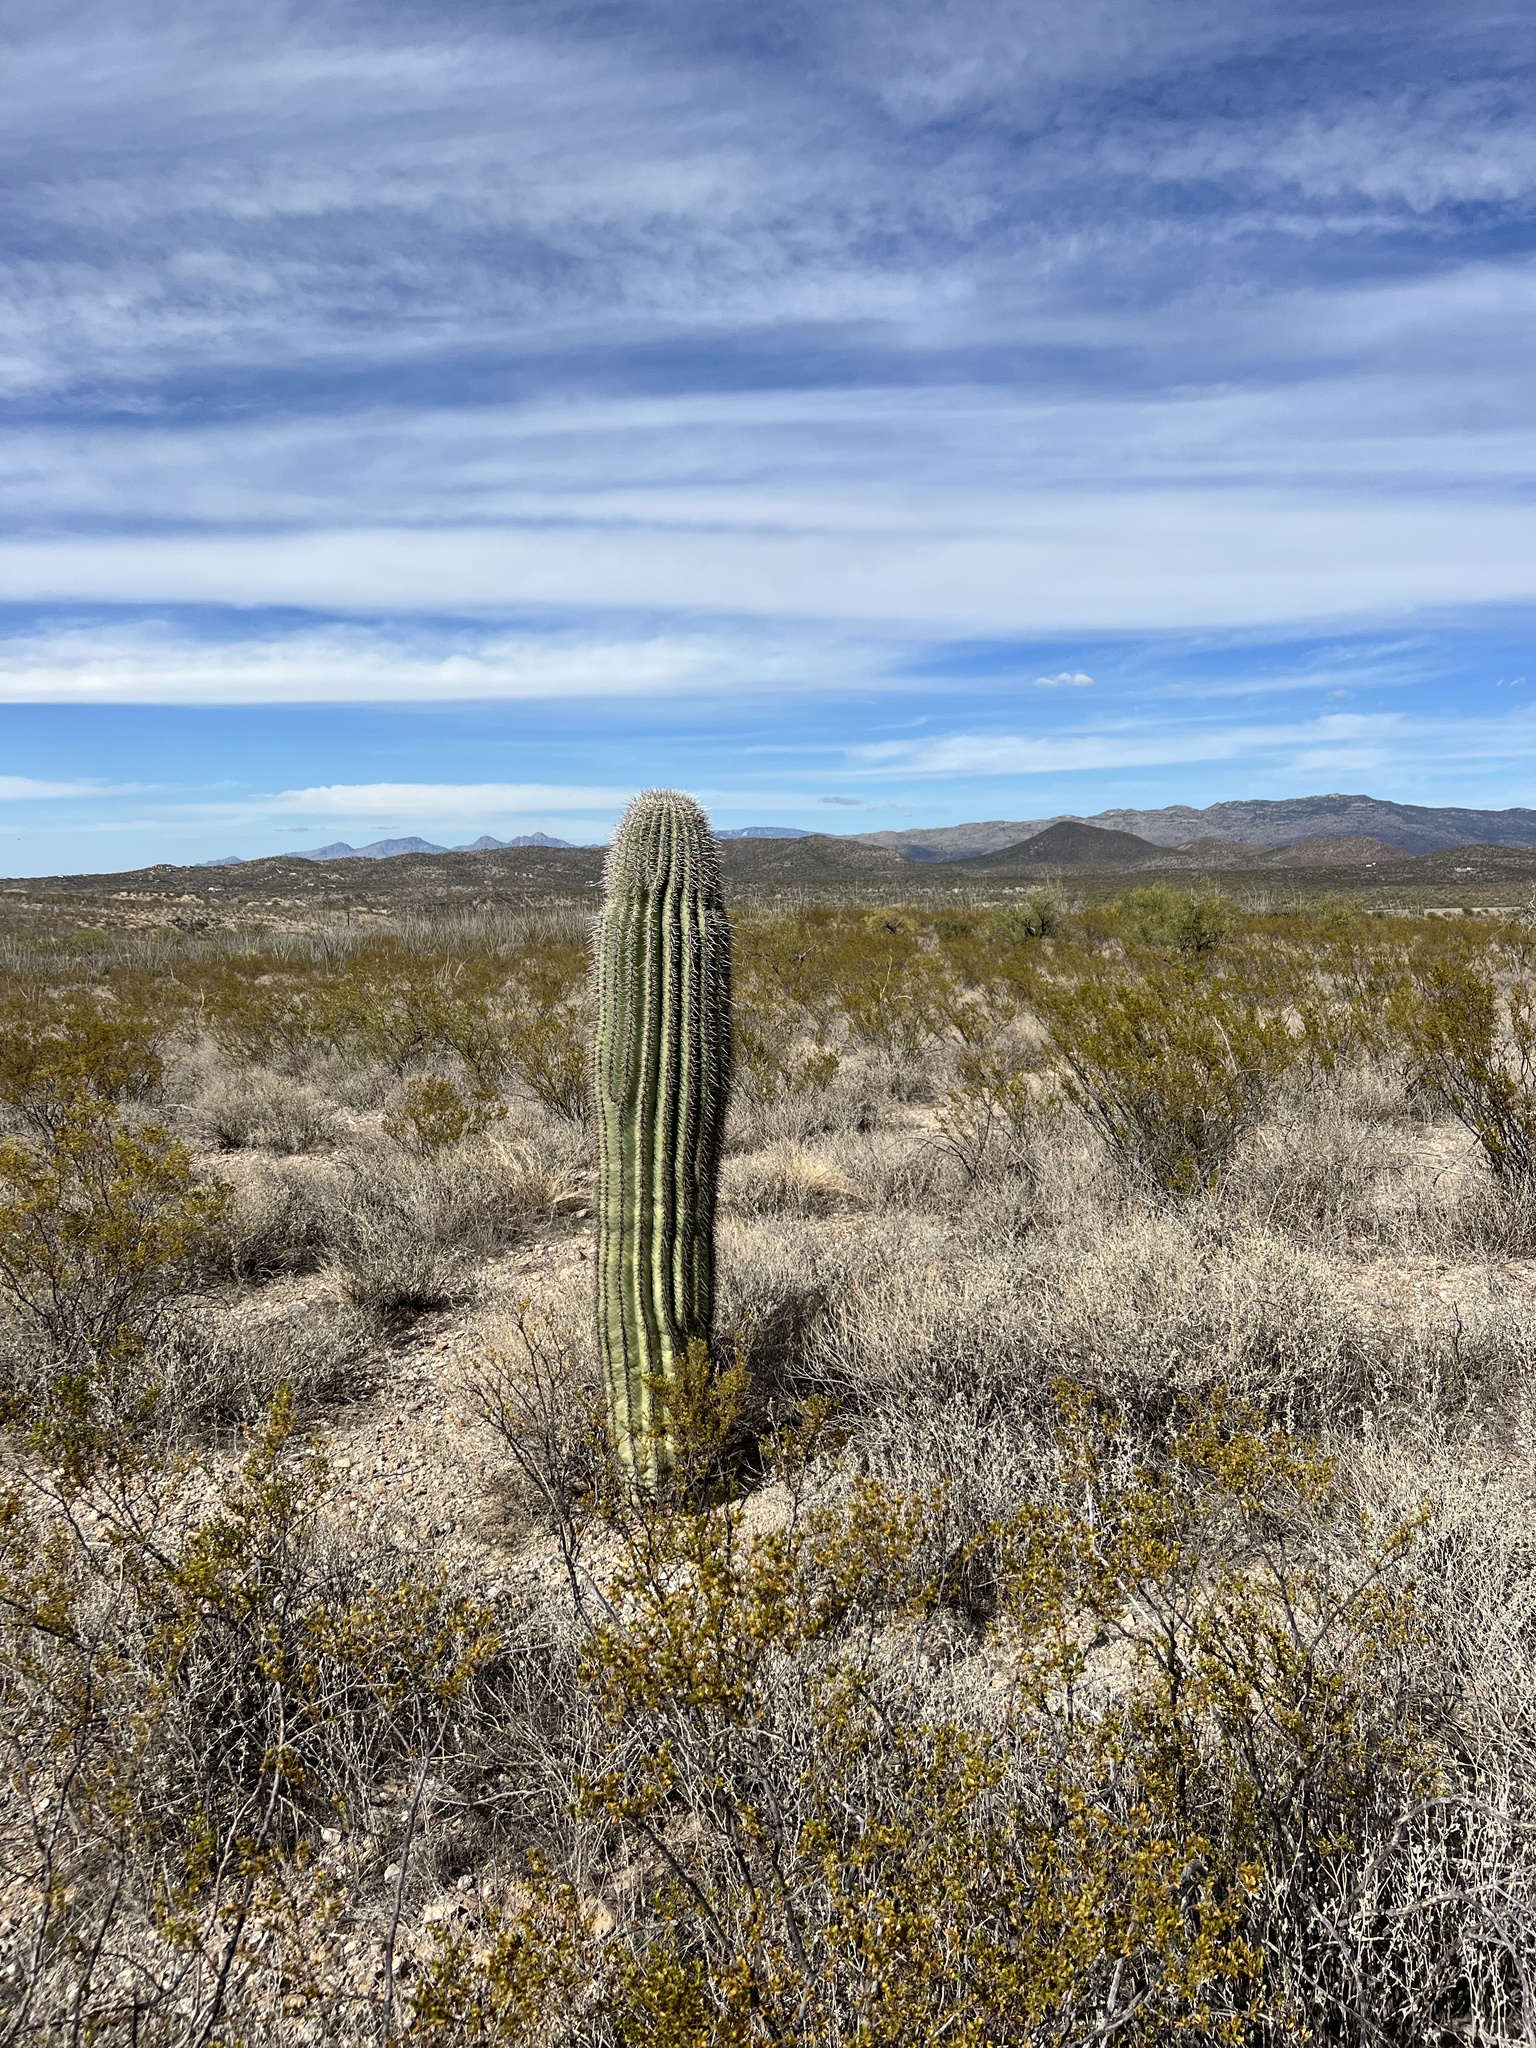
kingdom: Plantae
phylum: Tracheophyta
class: Magnoliopsida
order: Caryophyllales
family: Cactaceae
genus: Carnegiea
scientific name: Carnegiea gigantea
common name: Saguaro
